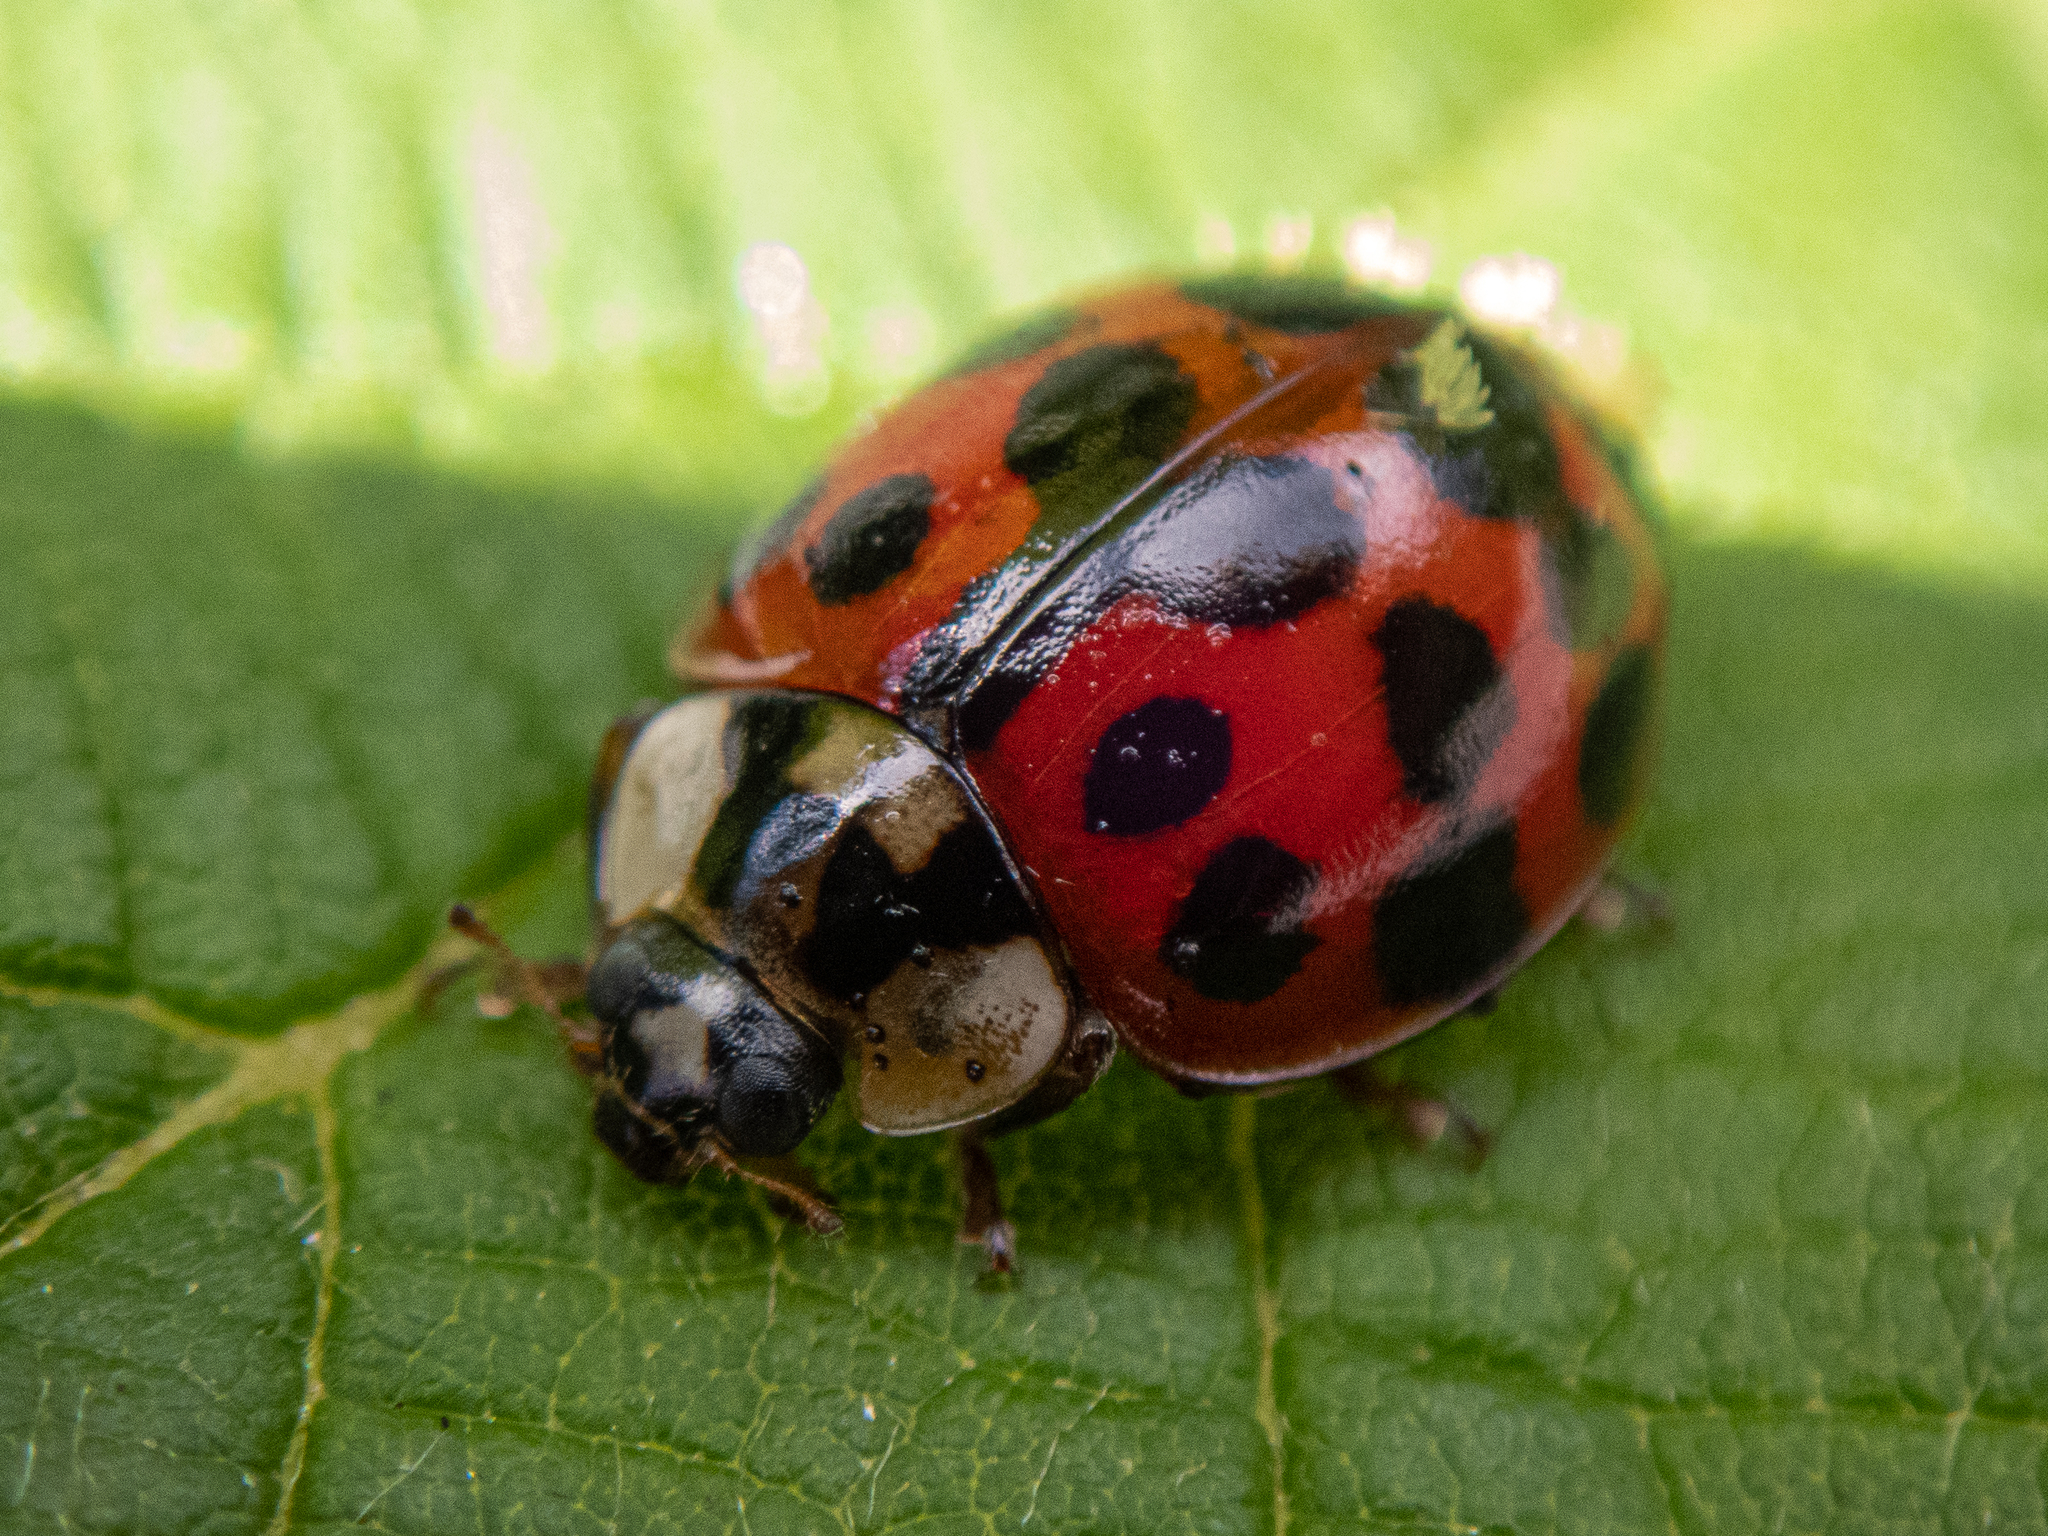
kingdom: Animalia
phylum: Arthropoda
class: Insecta
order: Coleoptera
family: Coccinellidae
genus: Harmonia
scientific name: Harmonia axyridis
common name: Harlequin ladybird
